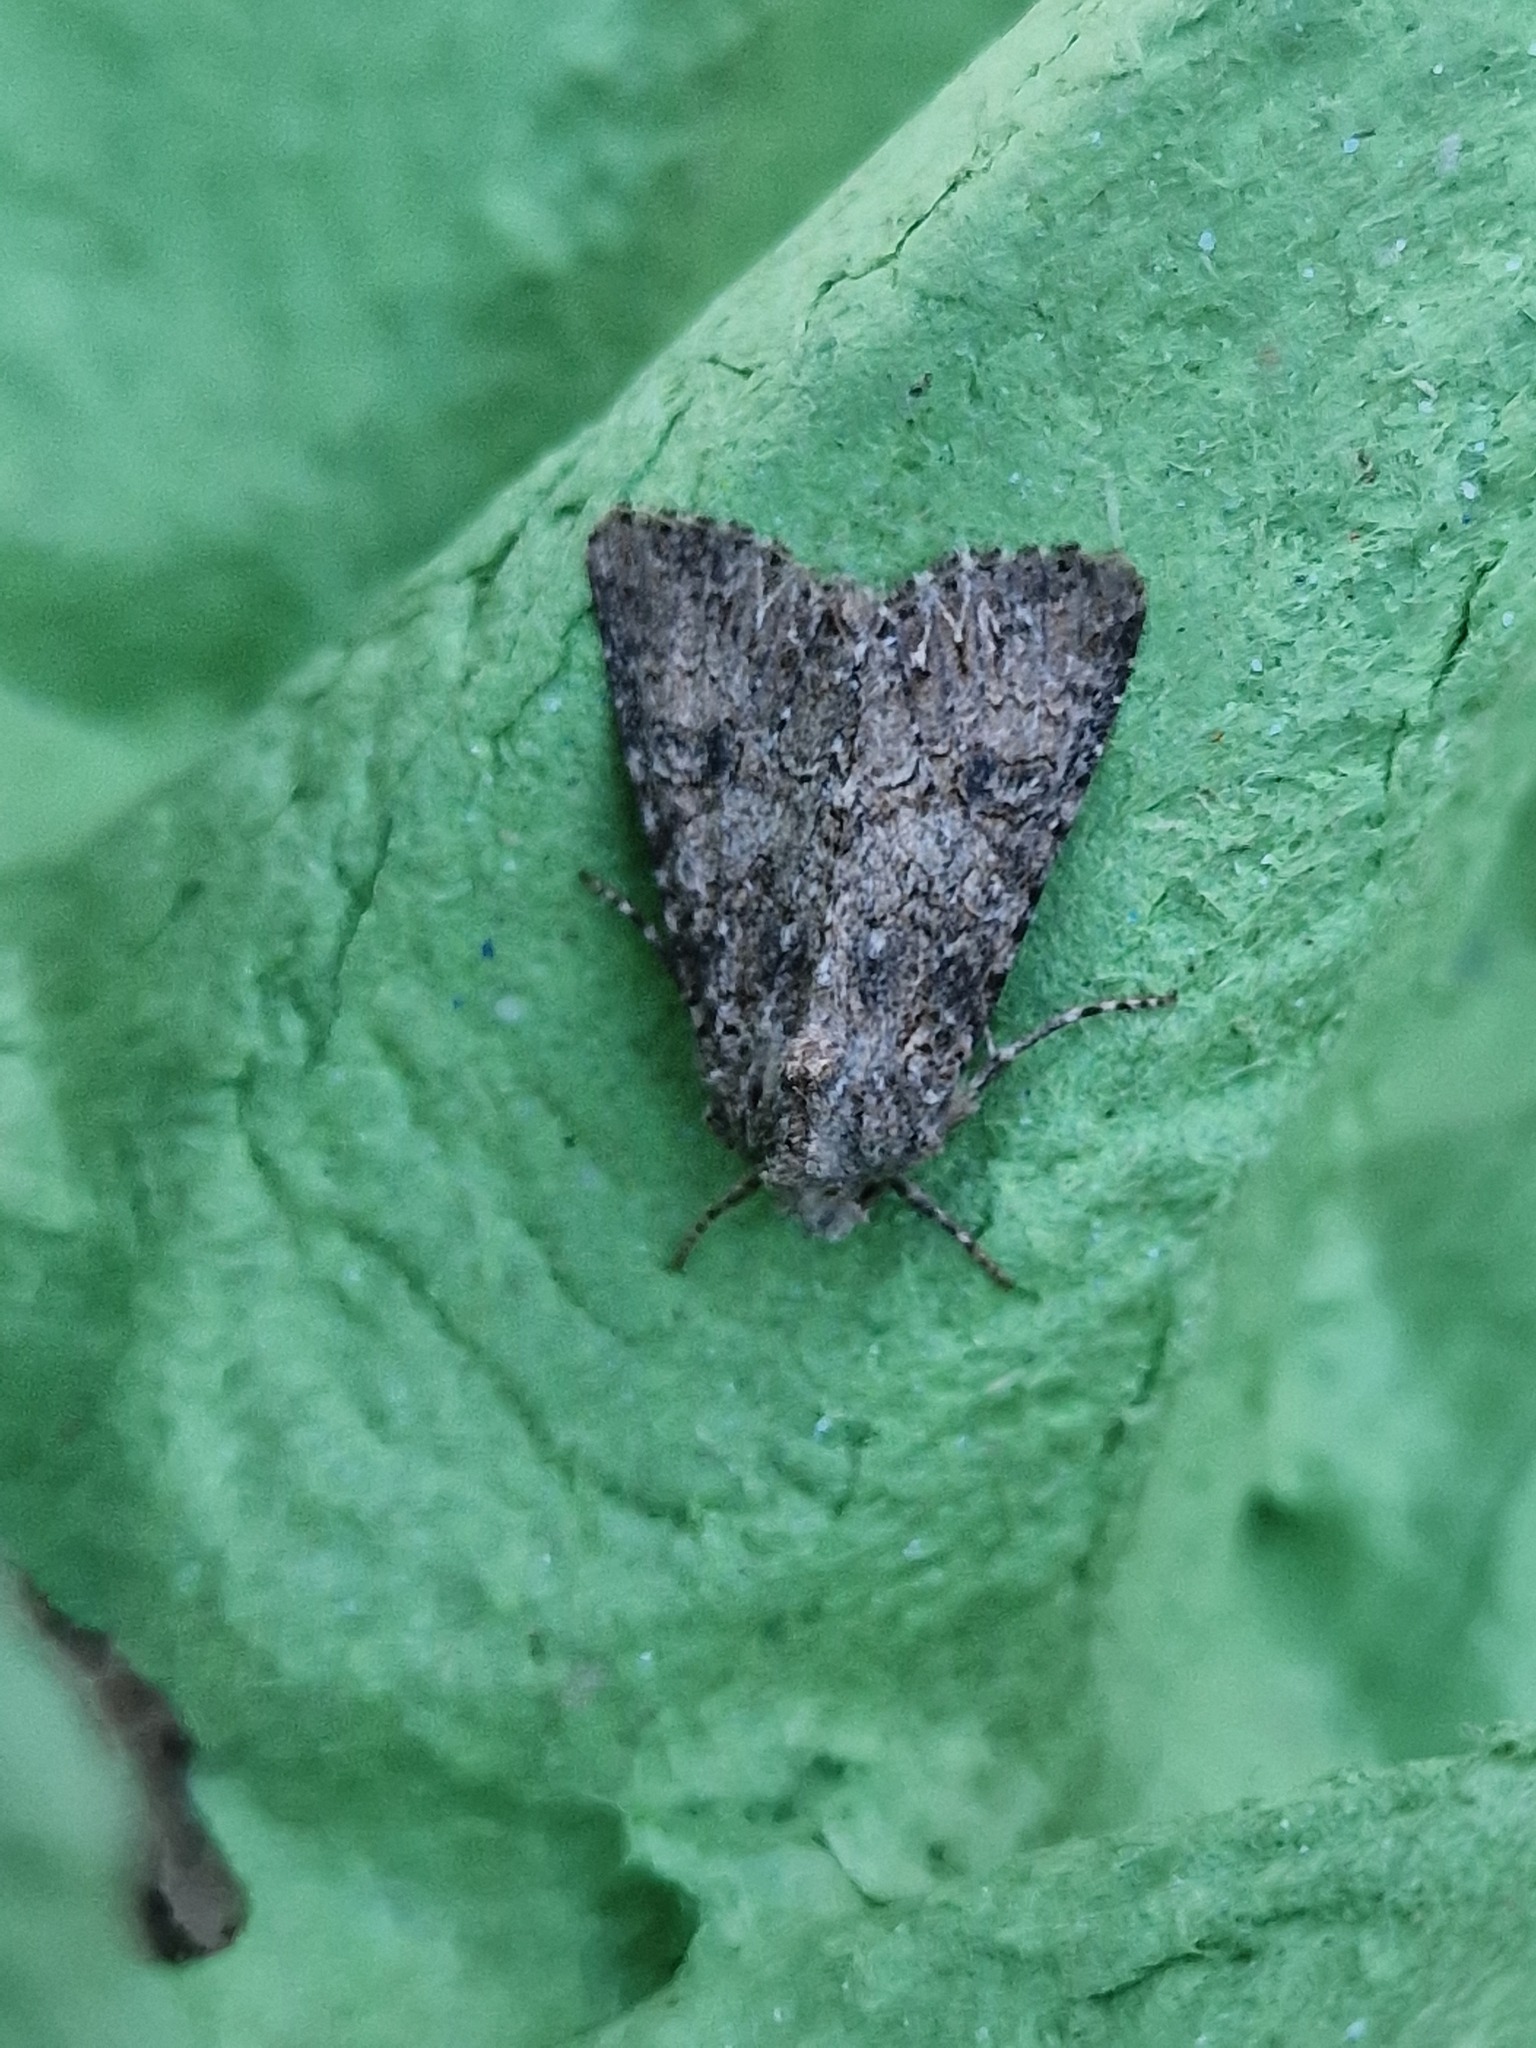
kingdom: Animalia
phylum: Arthropoda
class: Insecta
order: Lepidoptera
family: Noctuidae
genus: Anarta
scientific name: Anarta trifolii
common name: Clover cutworm moth
